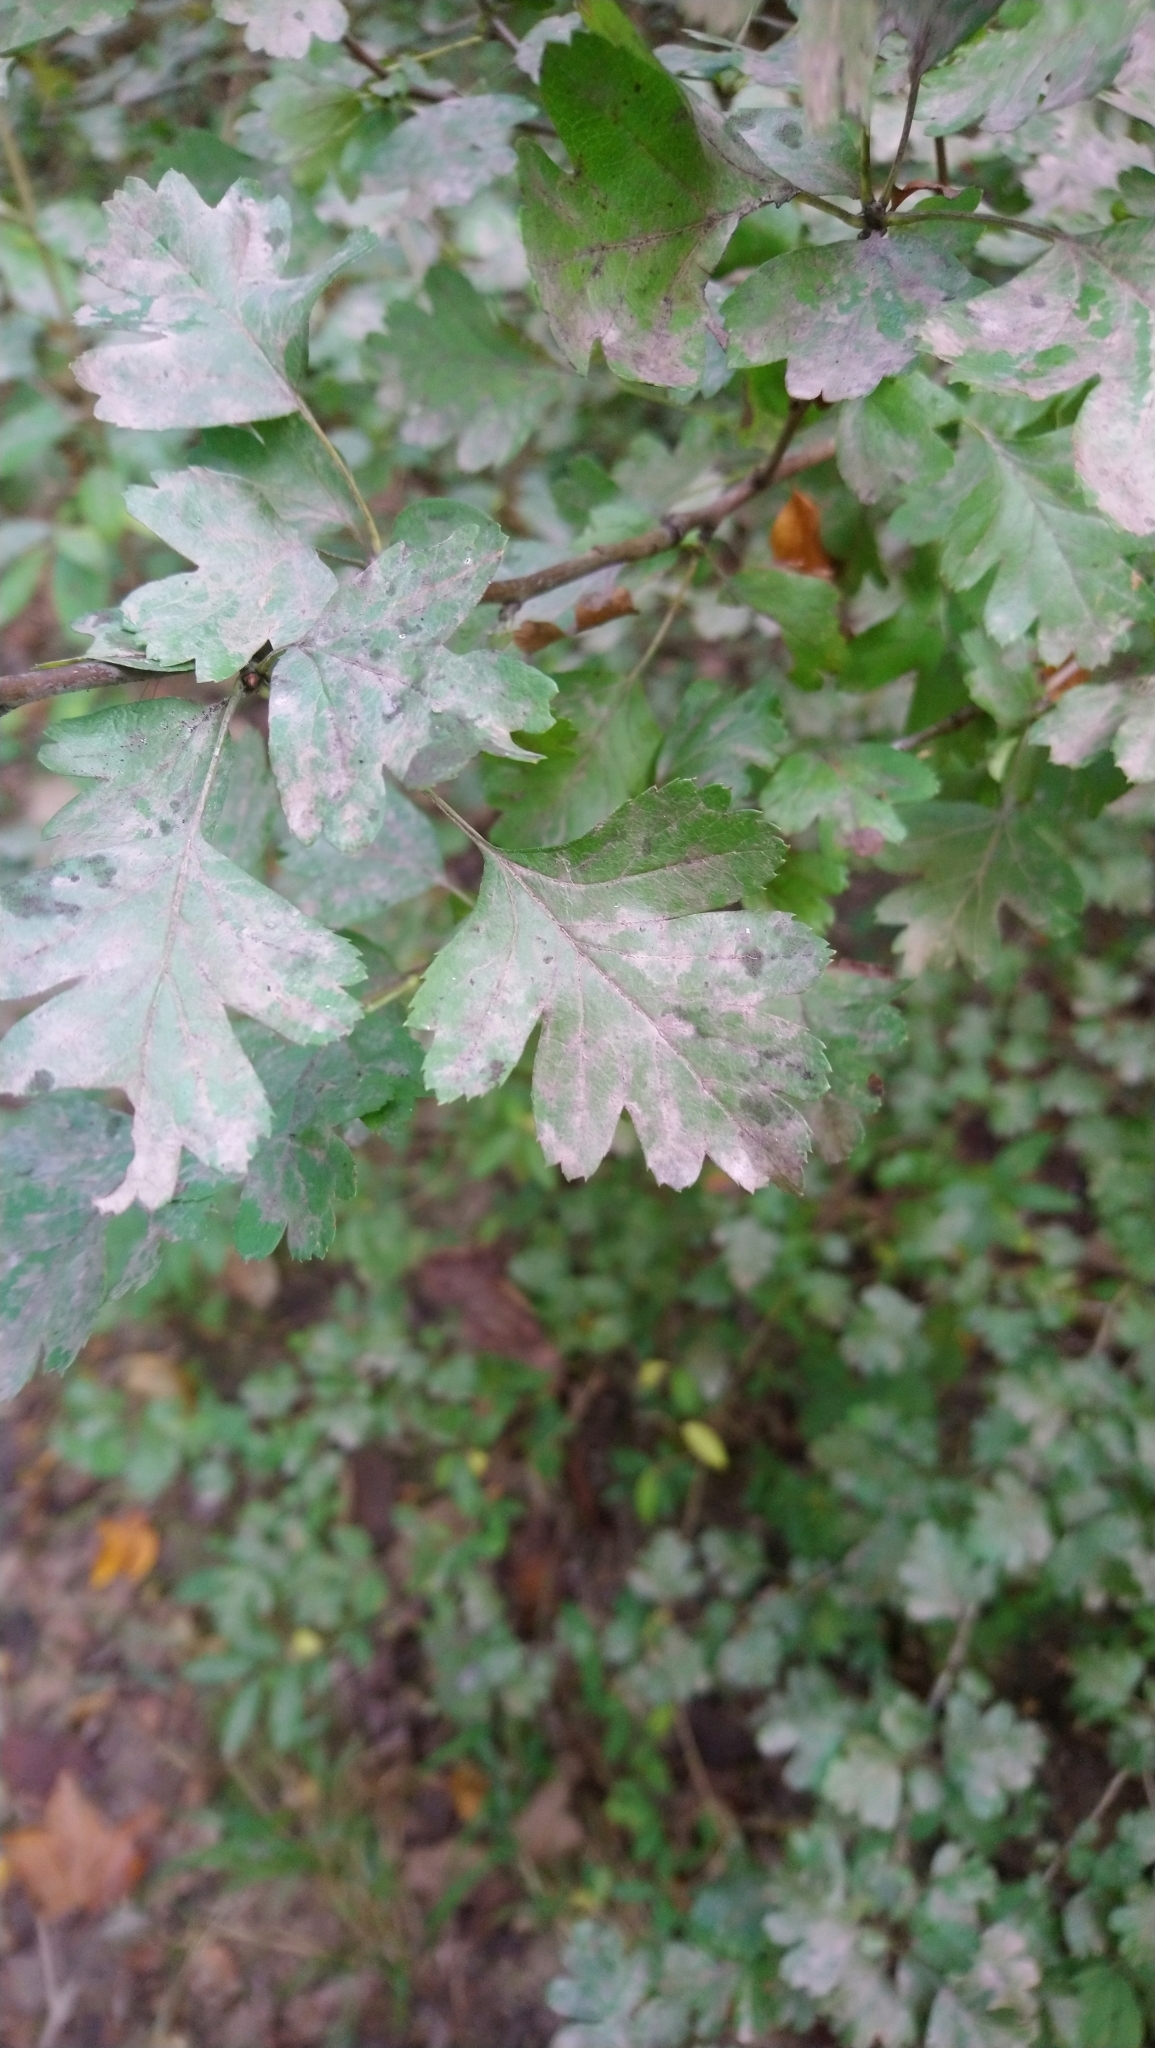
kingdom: Plantae
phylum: Tracheophyta
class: Magnoliopsida
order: Rosales
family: Rosaceae
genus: Crataegus
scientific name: Crataegus monogyna
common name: Hawthorn
